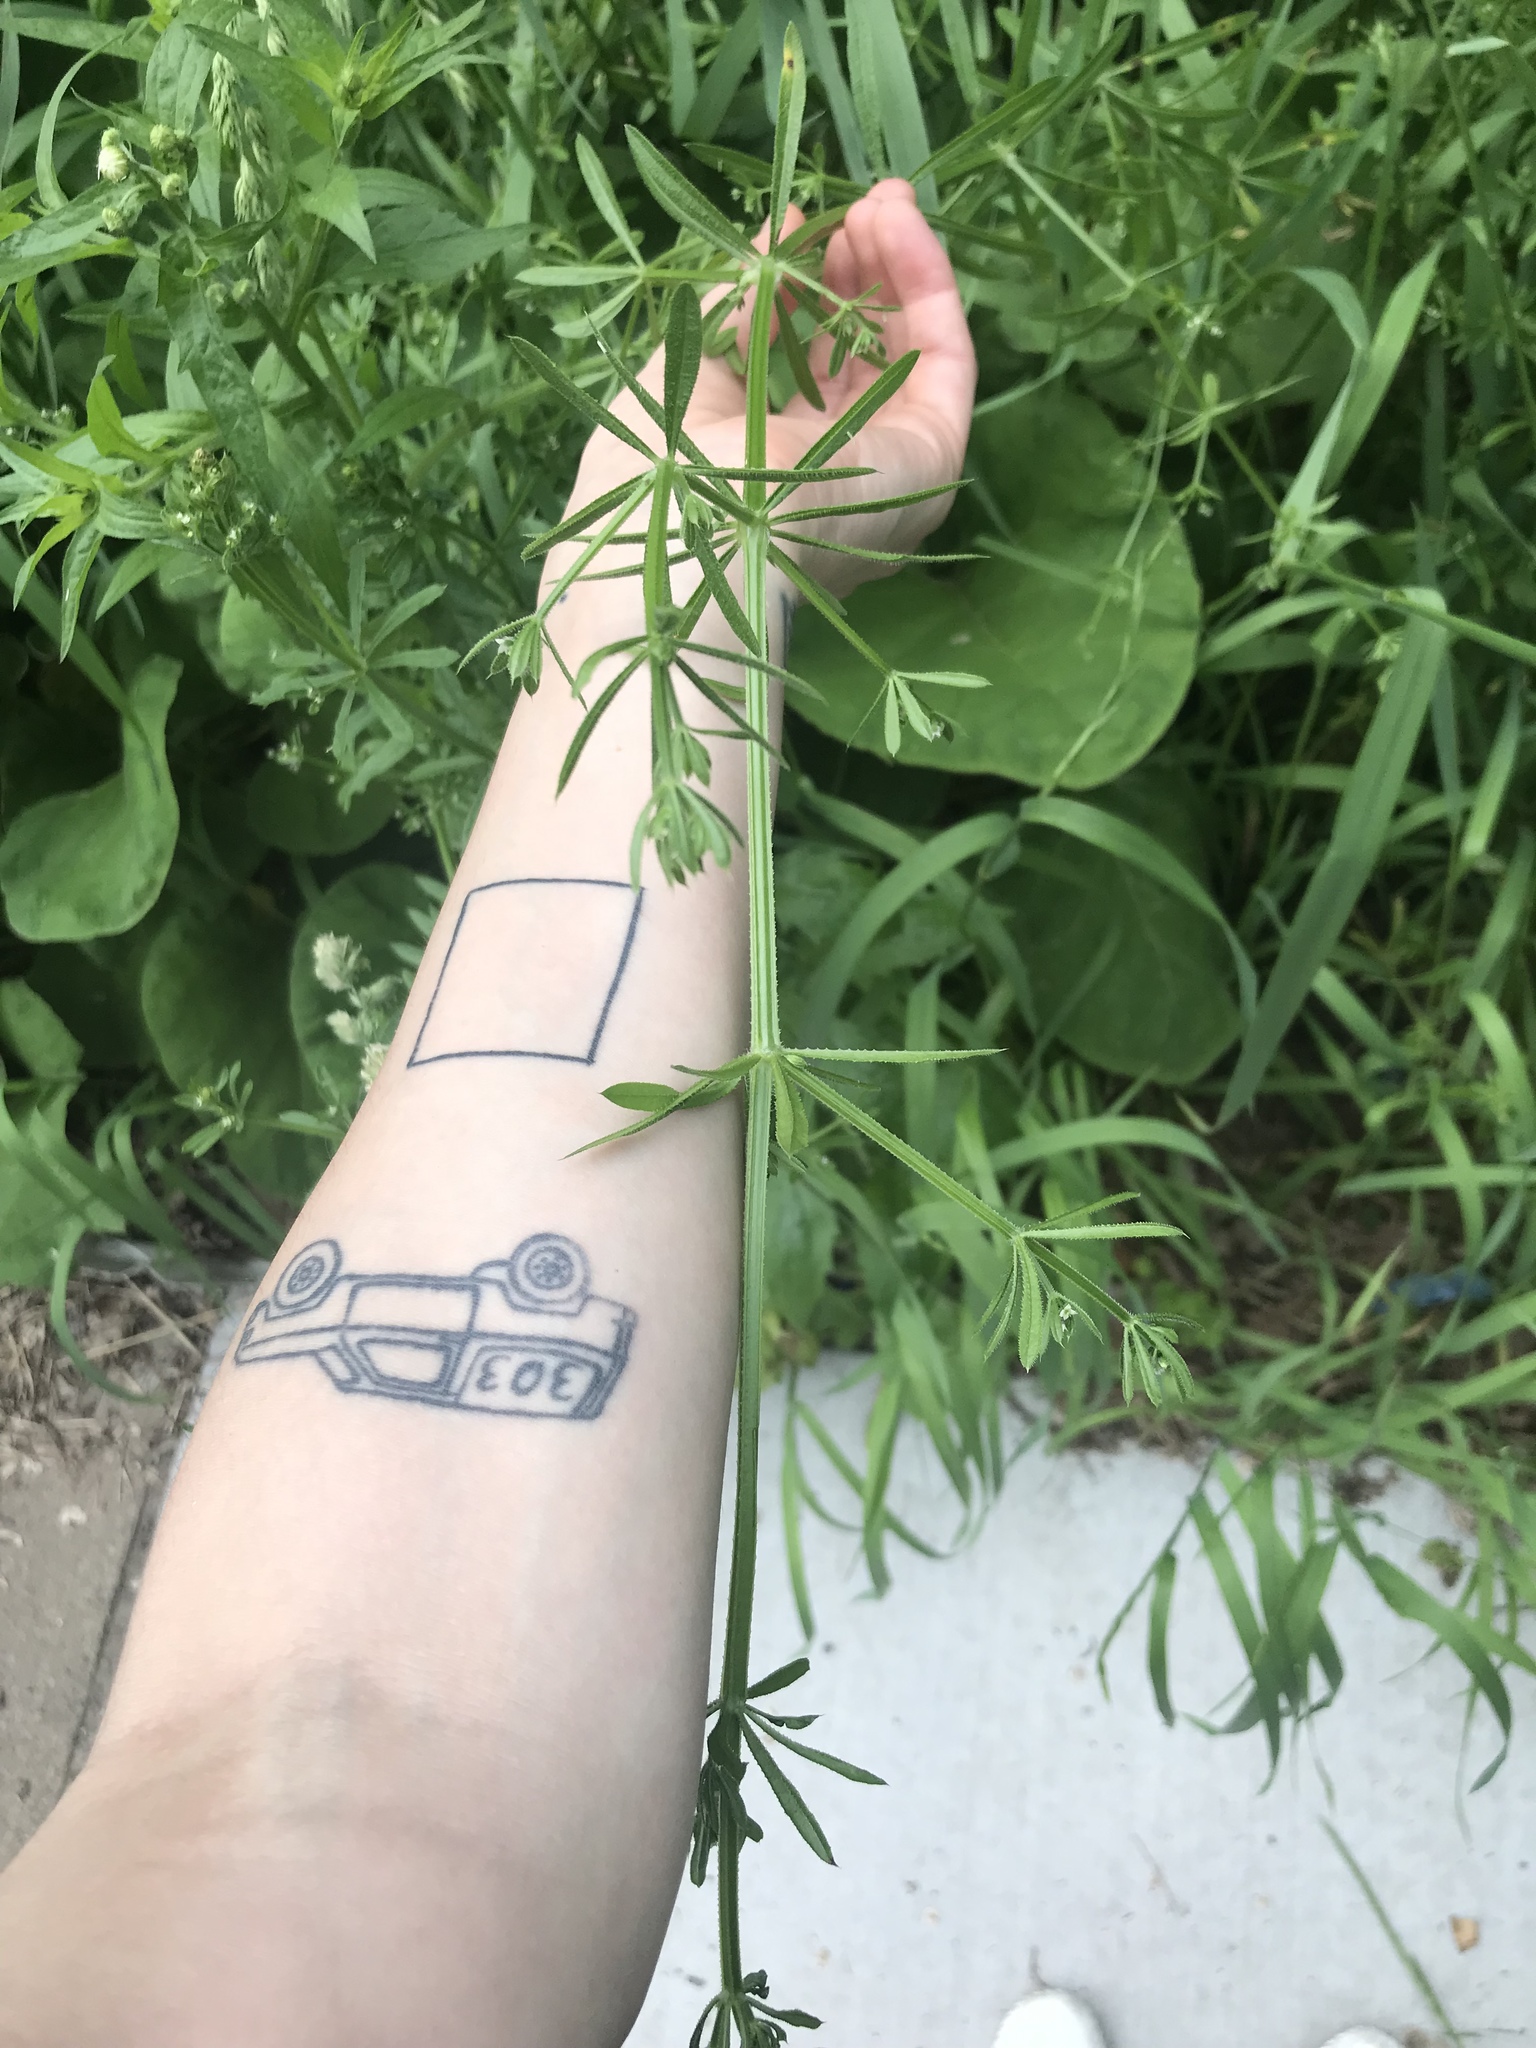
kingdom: Plantae
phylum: Tracheophyta
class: Magnoliopsida
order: Gentianales
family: Rubiaceae
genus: Galium
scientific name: Galium aparine
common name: Cleavers
